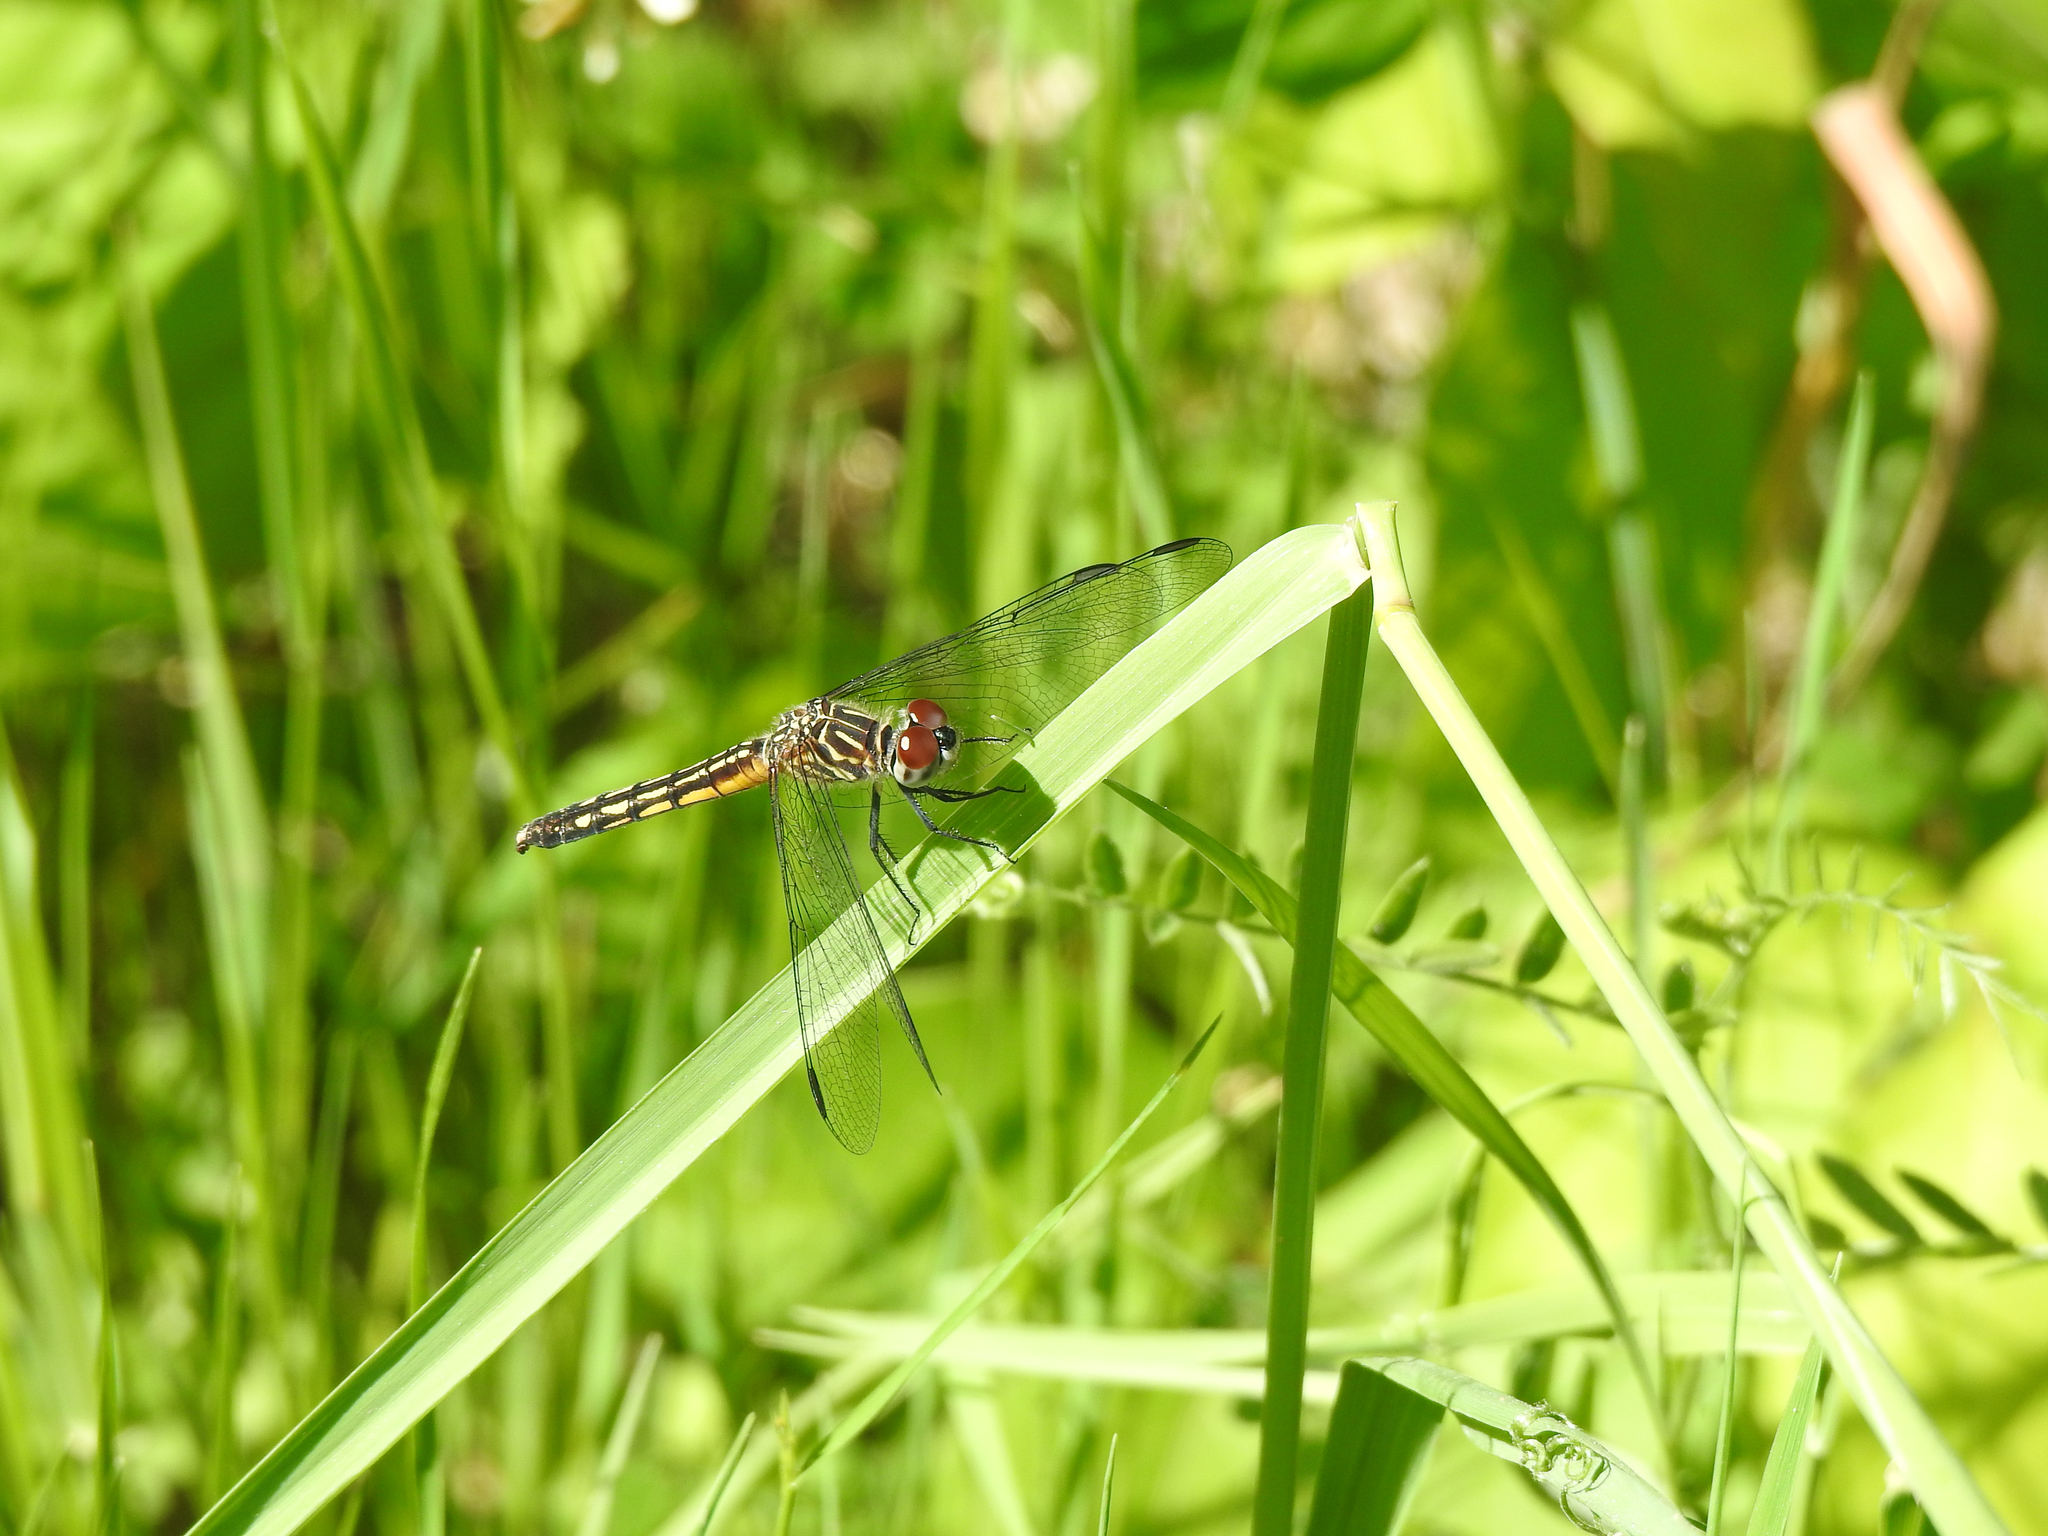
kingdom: Animalia
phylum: Arthropoda
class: Insecta
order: Odonata
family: Libellulidae
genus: Pachydiplax
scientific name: Pachydiplax longipennis
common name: Blue dasher
